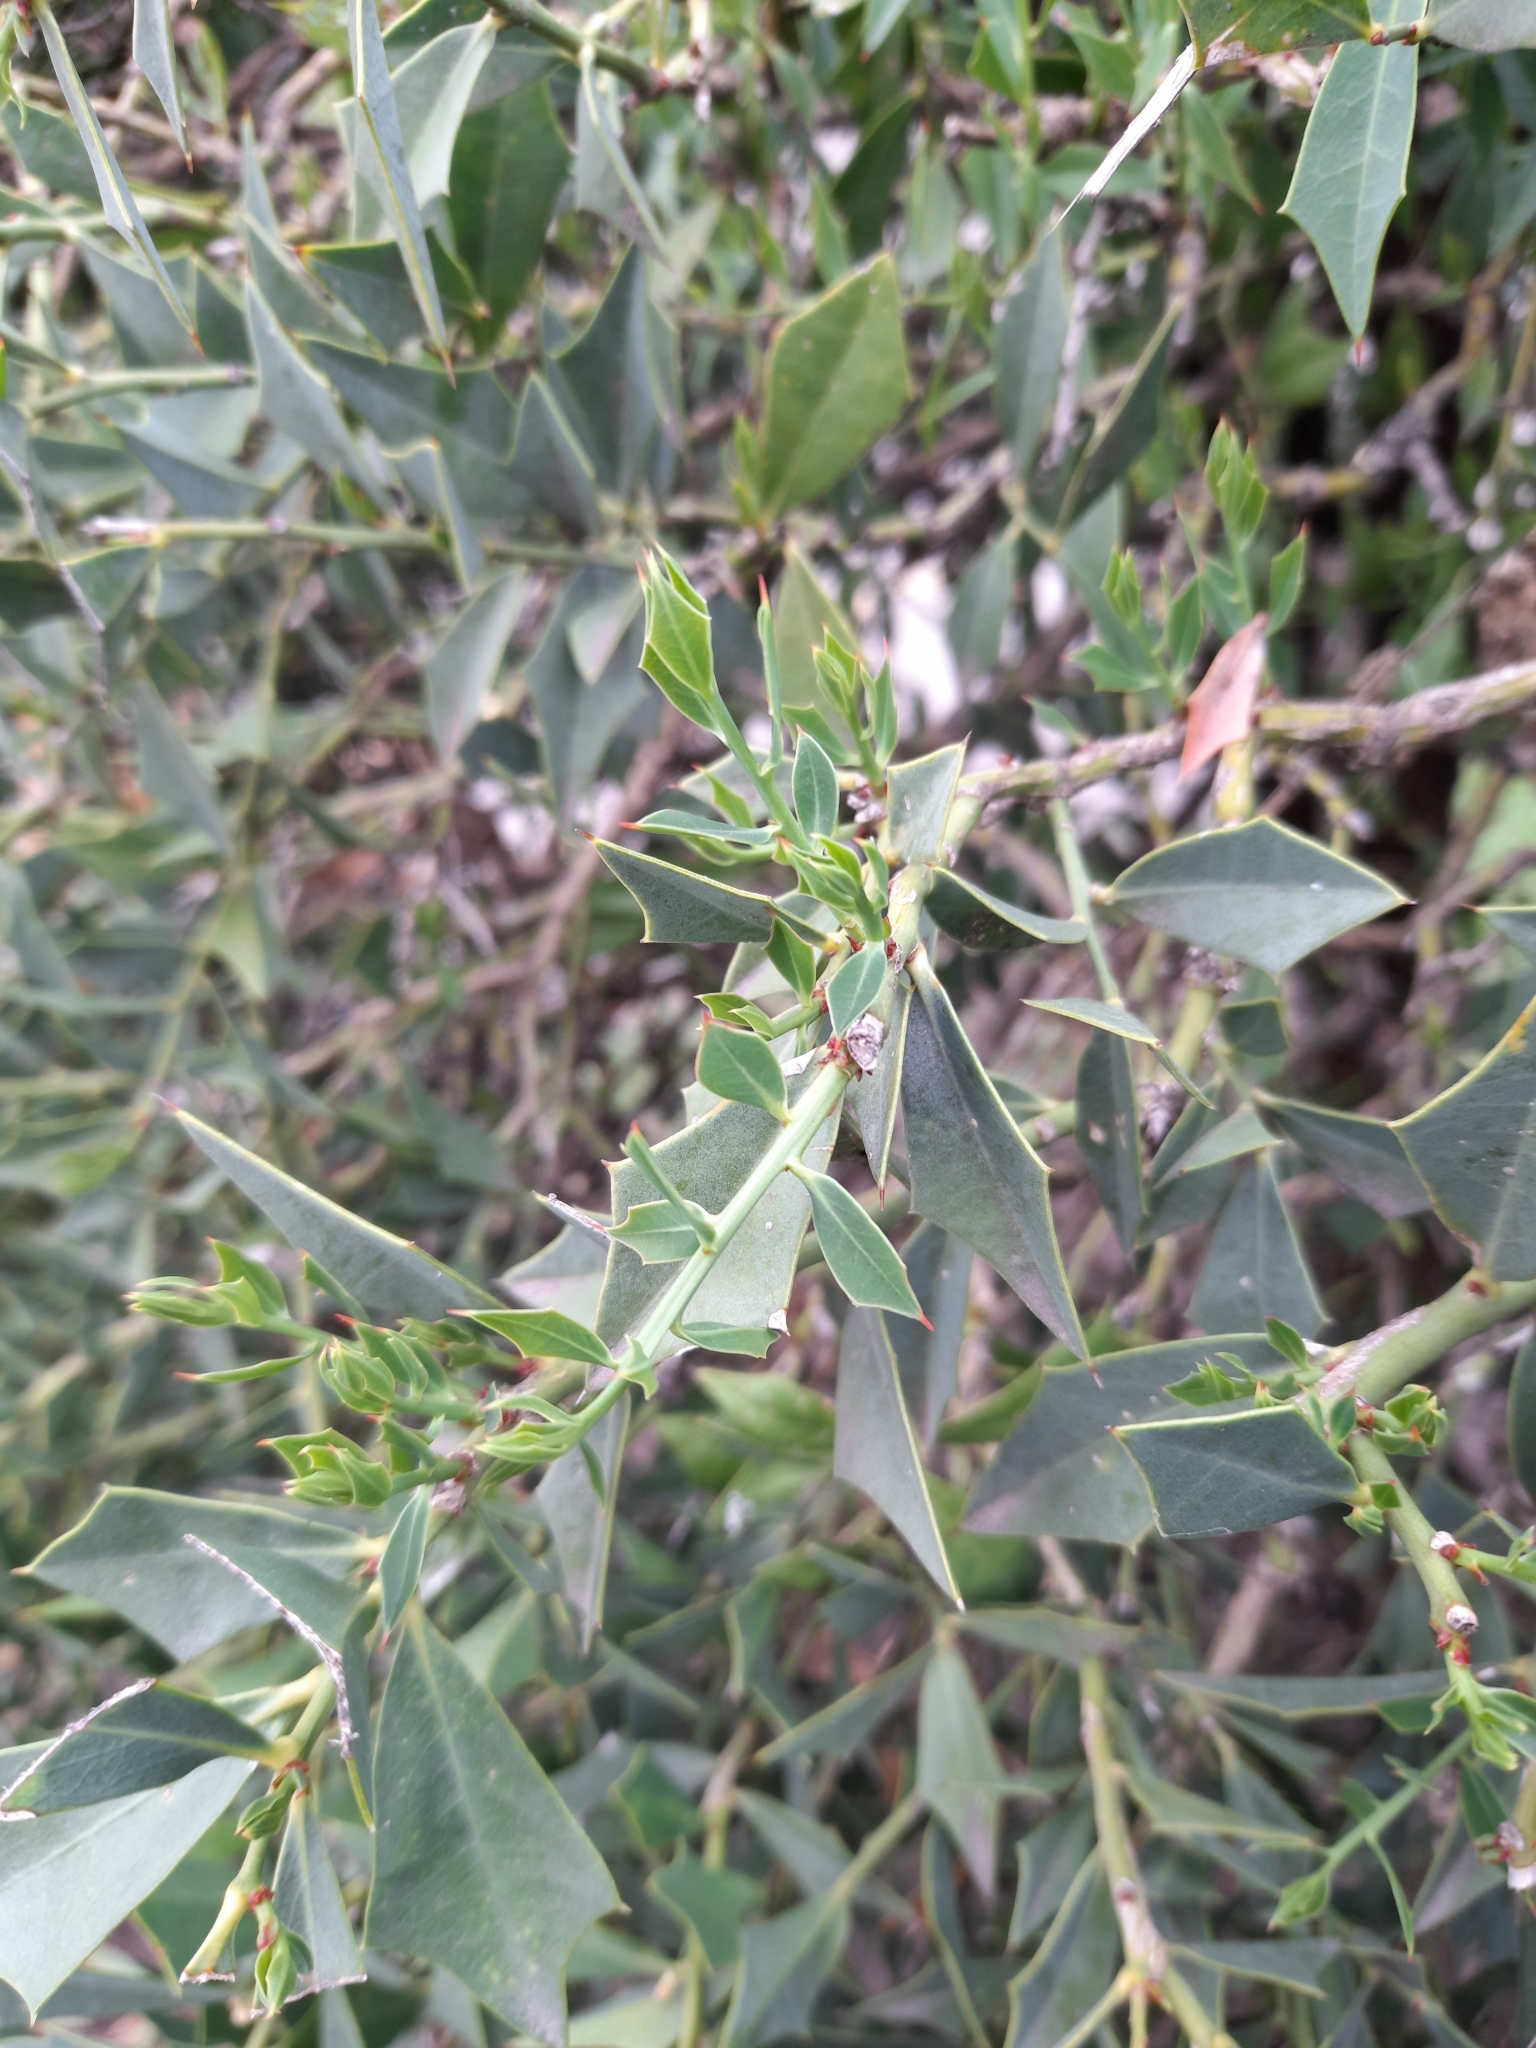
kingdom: Plantae
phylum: Tracheophyta
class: Magnoliopsida
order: Santalales
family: Cervantesiaceae
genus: Jodina
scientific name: Jodina rhombifolia
